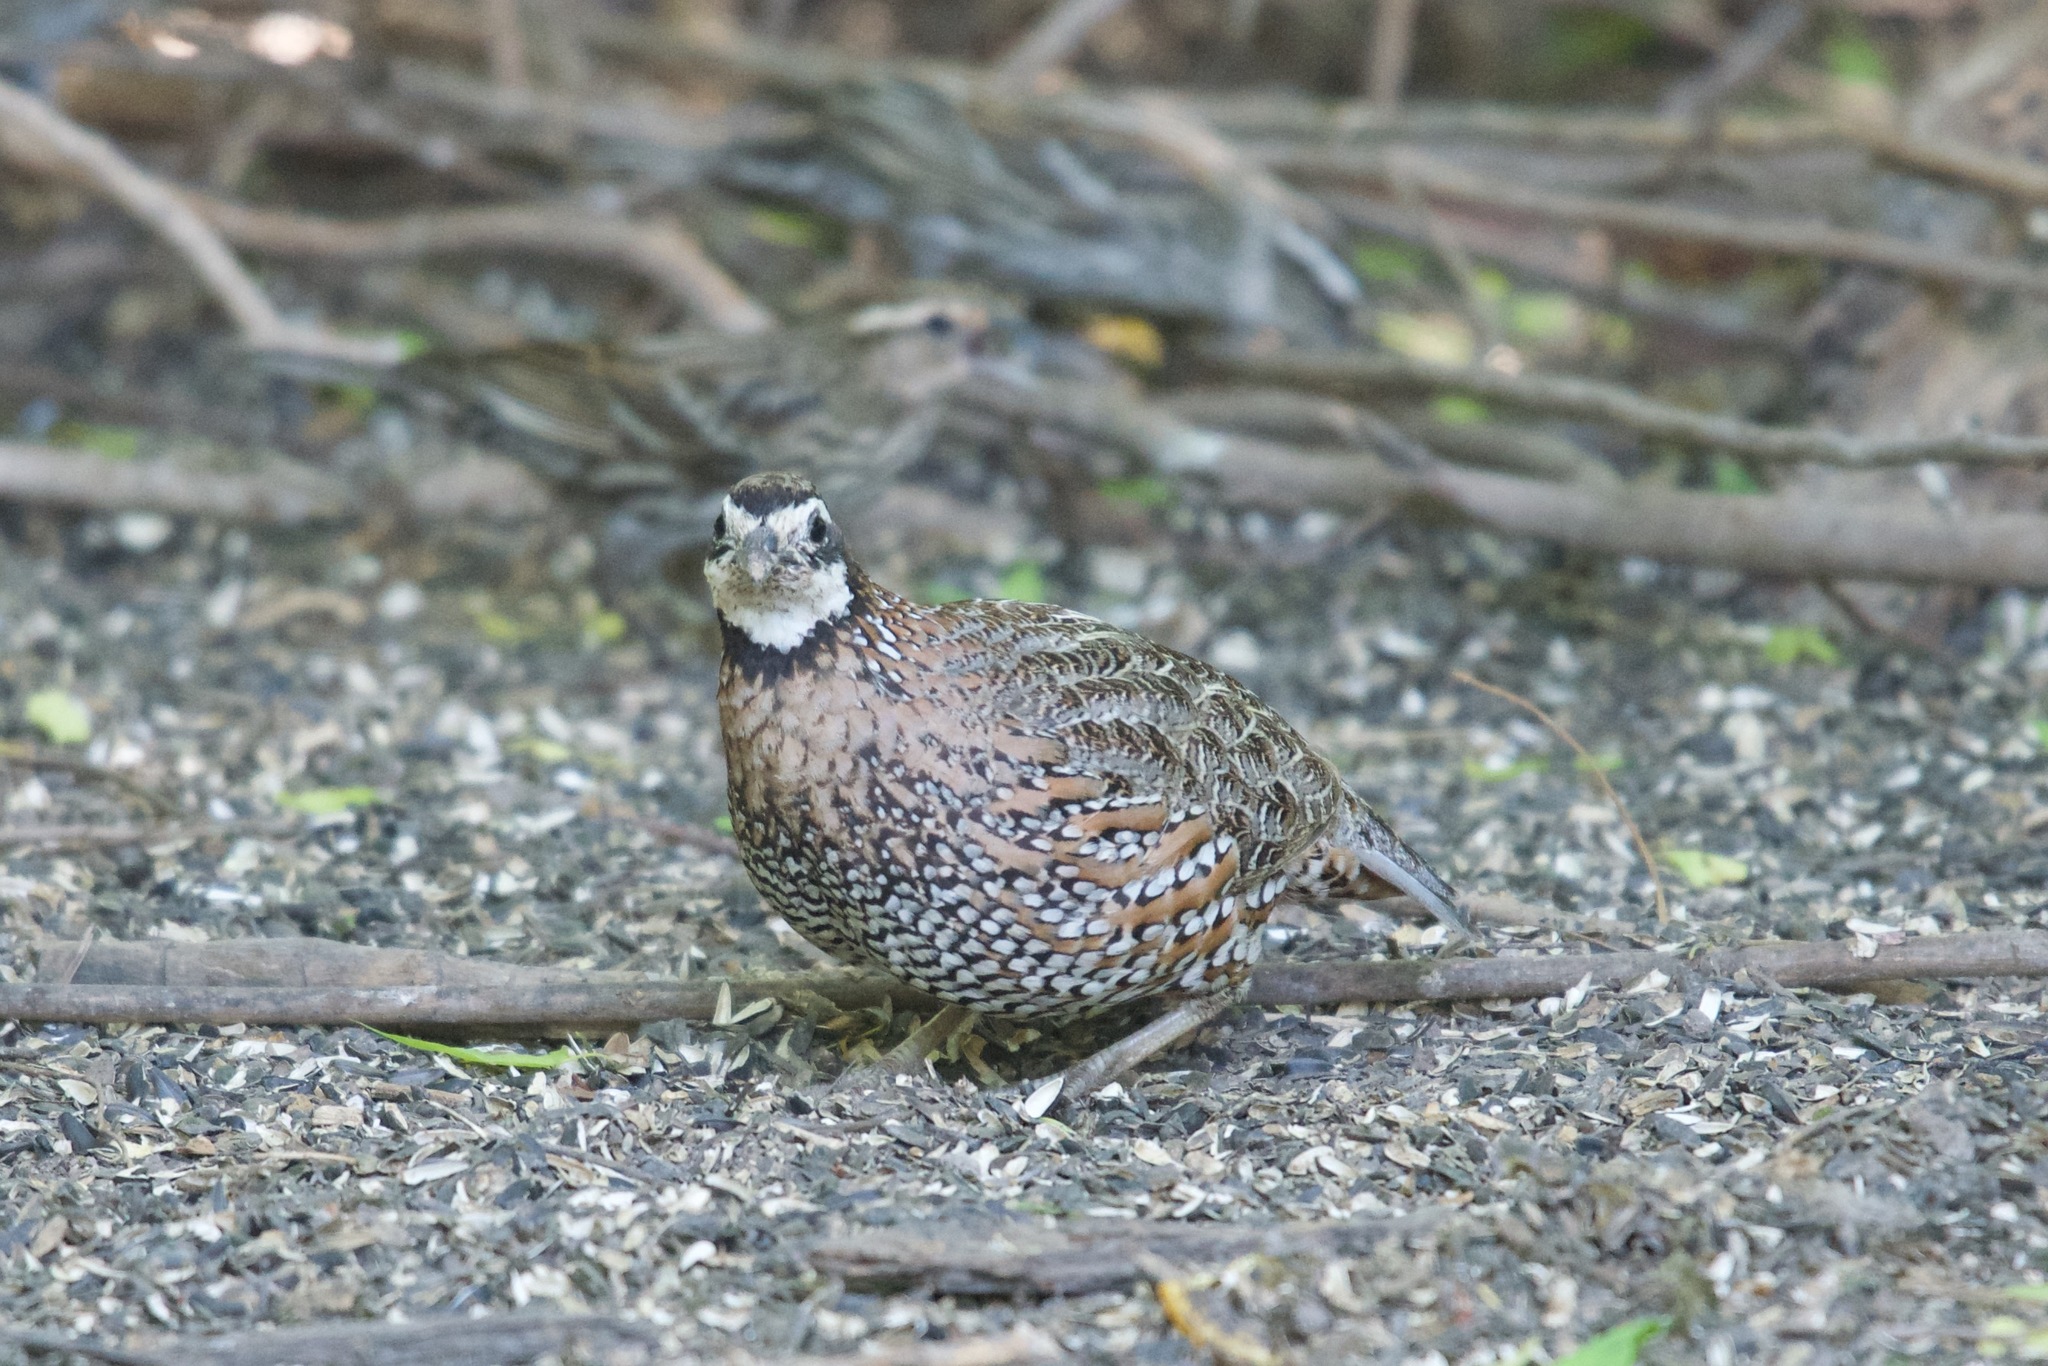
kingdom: Animalia
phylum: Chordata
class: Aves
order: Galliformes
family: Odontophoridae
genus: Colinus
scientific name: Colinus virginianus
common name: Northern bobwhite
